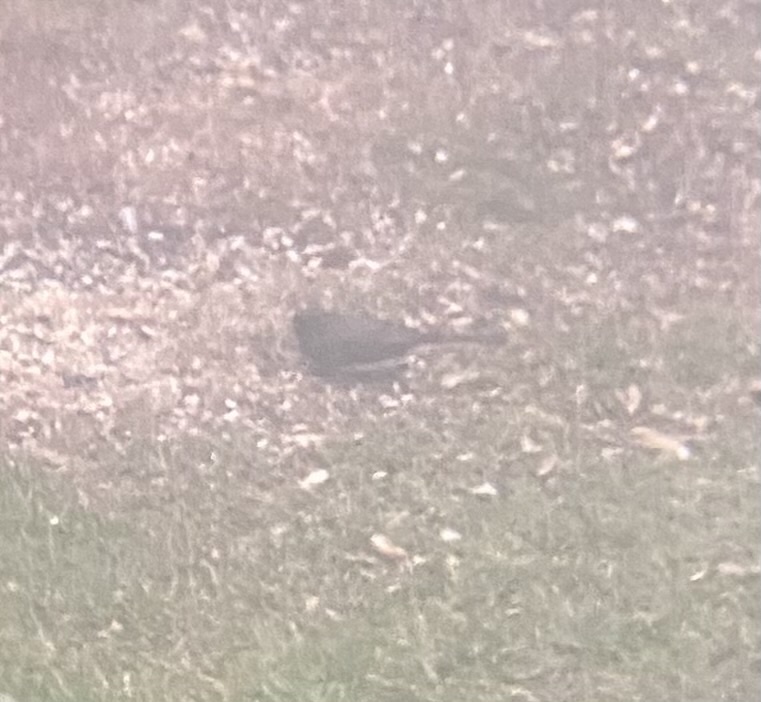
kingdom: Animalia
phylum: Chordata
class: Aves
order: Passeriformes
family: Passerellidae
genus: Junco
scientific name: Junco hyemalis
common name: Dark-eyed junco
